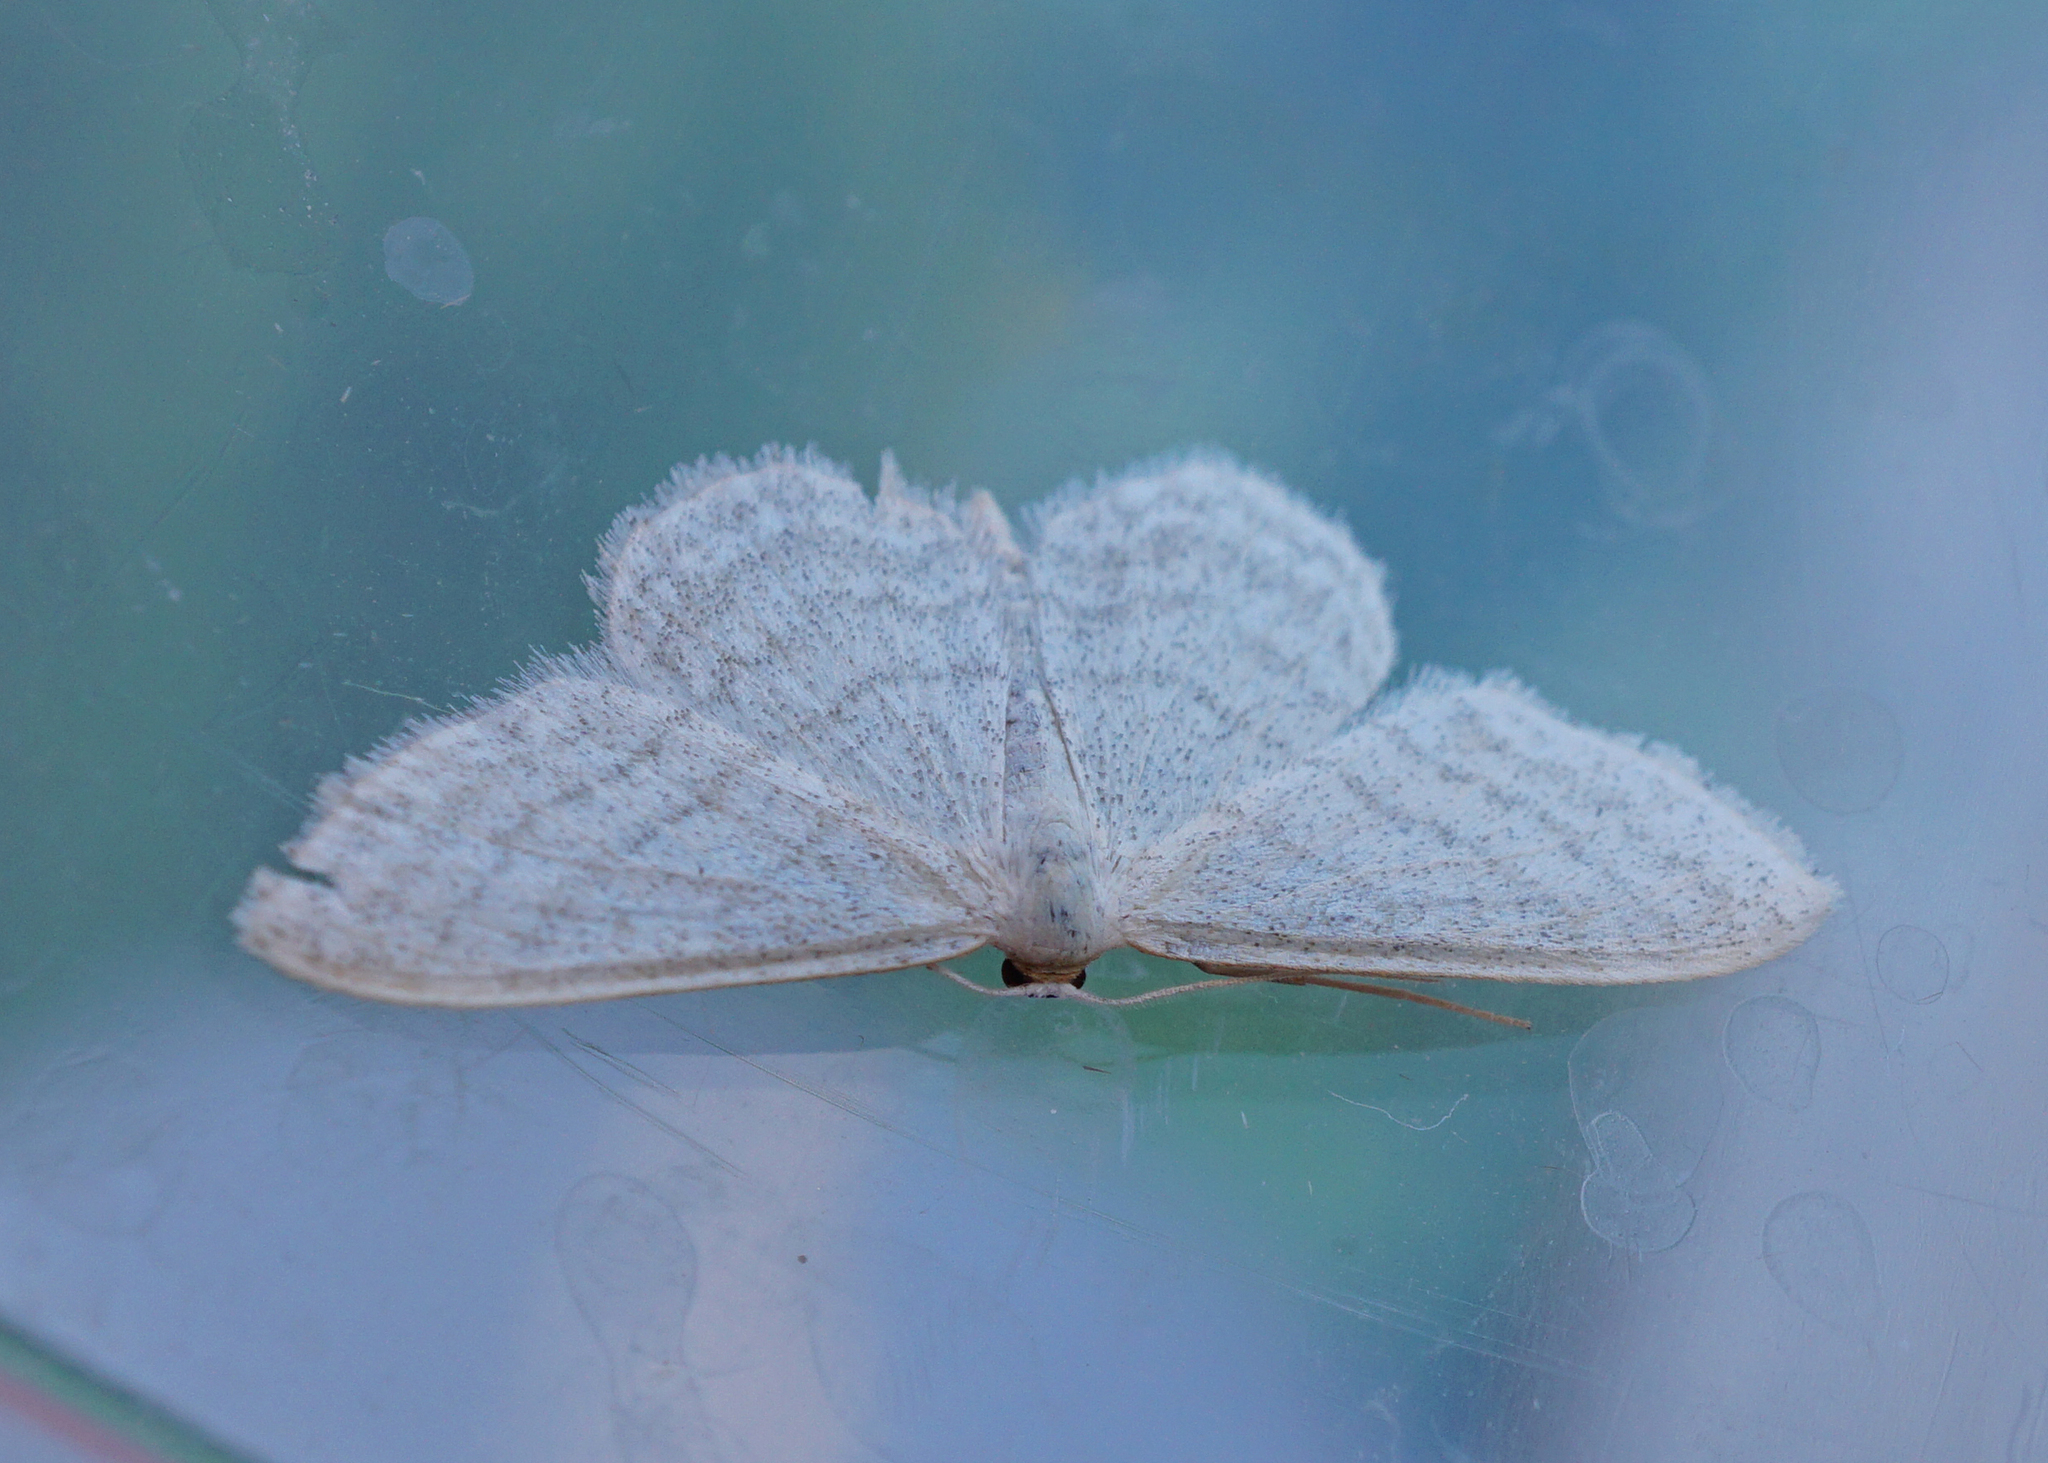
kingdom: Animalia
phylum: Arthropoda
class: Insecta
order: Lepidoptera
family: Geometridae
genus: Idaea
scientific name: Idaea subsericeata
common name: Satin wave
